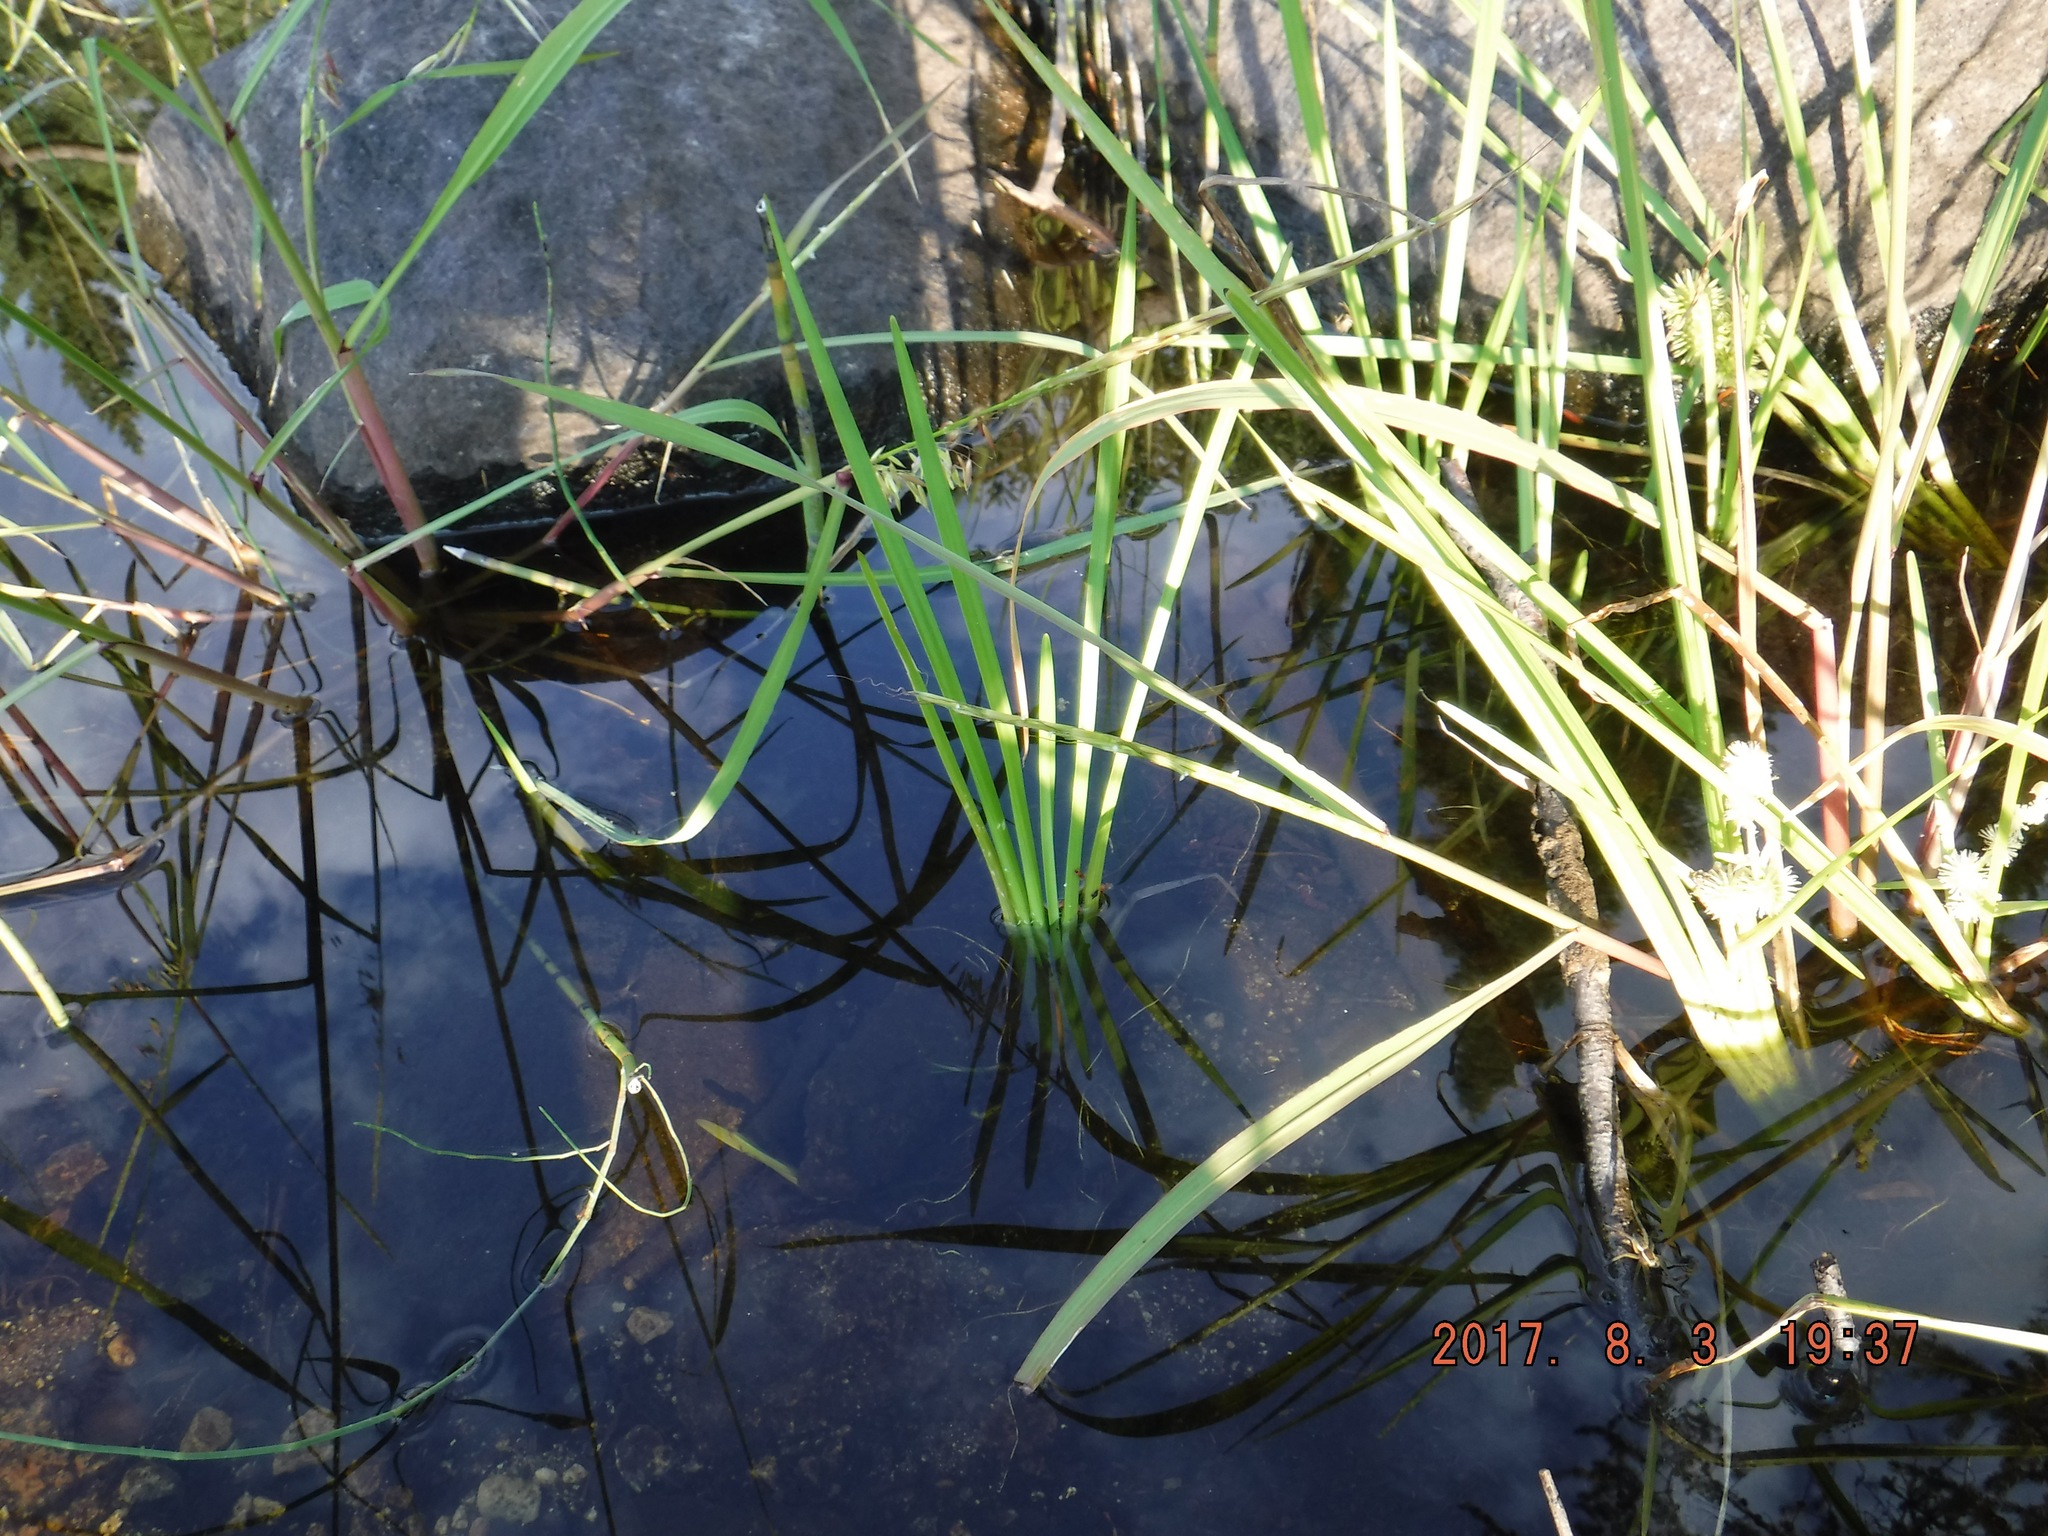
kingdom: Plantae
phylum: Tracheophyta
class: Liliopsida
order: Poales
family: Typhaceae
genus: Sparganium
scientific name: Sparganium emersum
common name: Unbranched bur-reed
